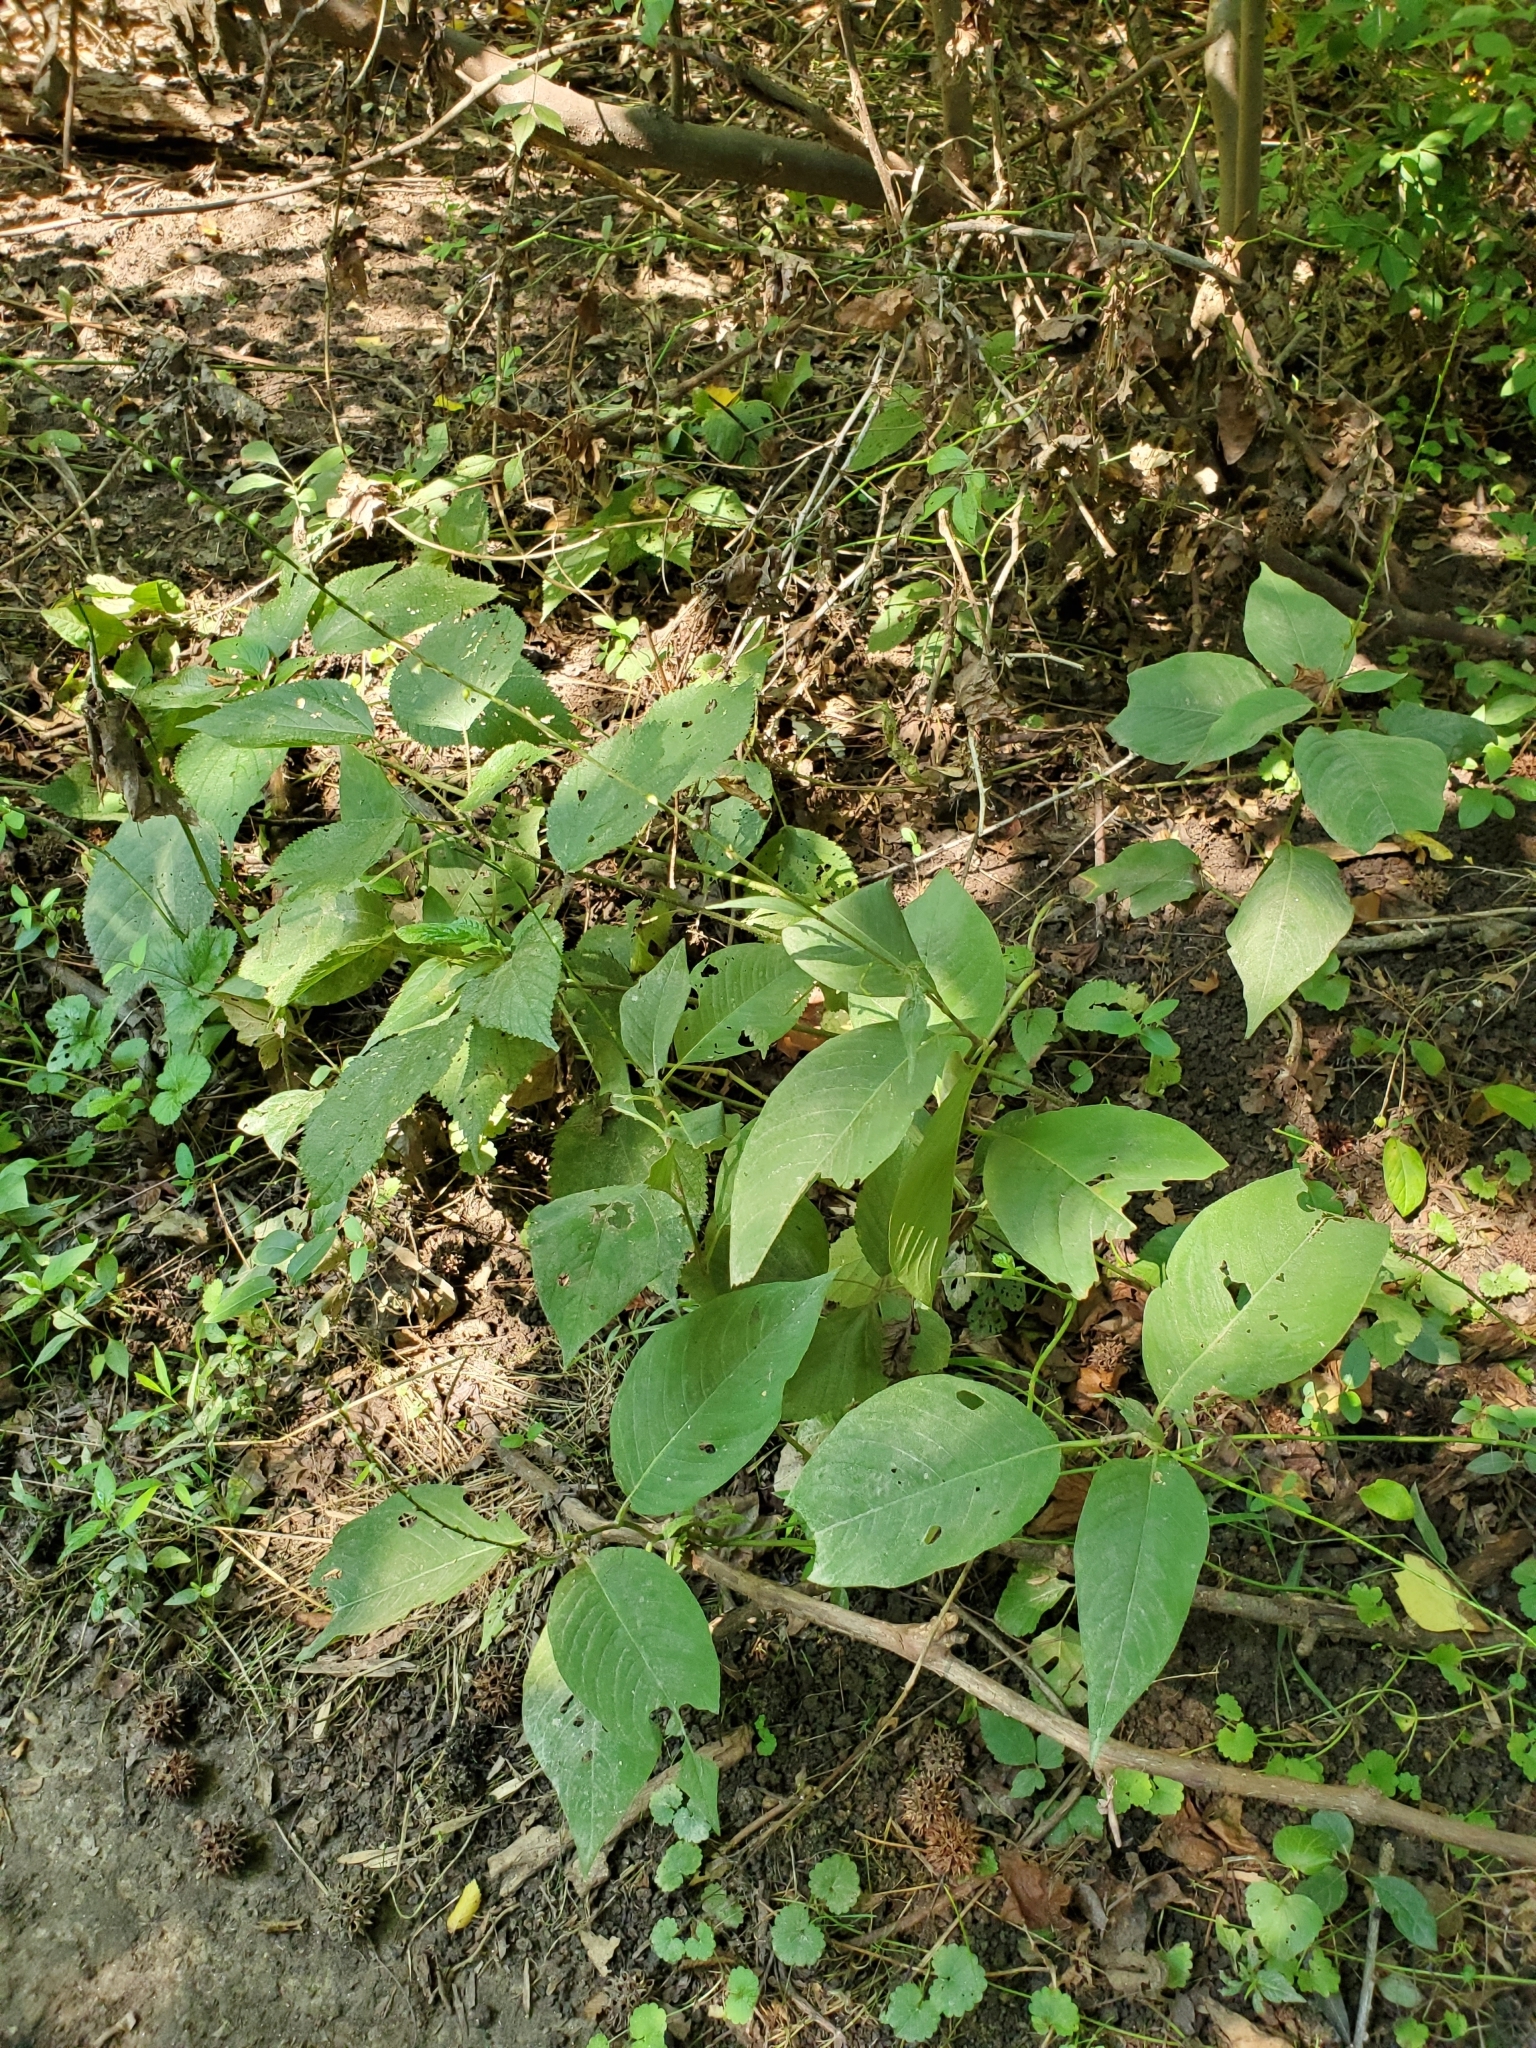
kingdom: Plantae
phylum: Tracheophyta
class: Magnoliopsida
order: Caryophyllales
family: Polygonaceae
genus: Persicaria
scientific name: Persicaria virginiana
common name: Jumpseed
